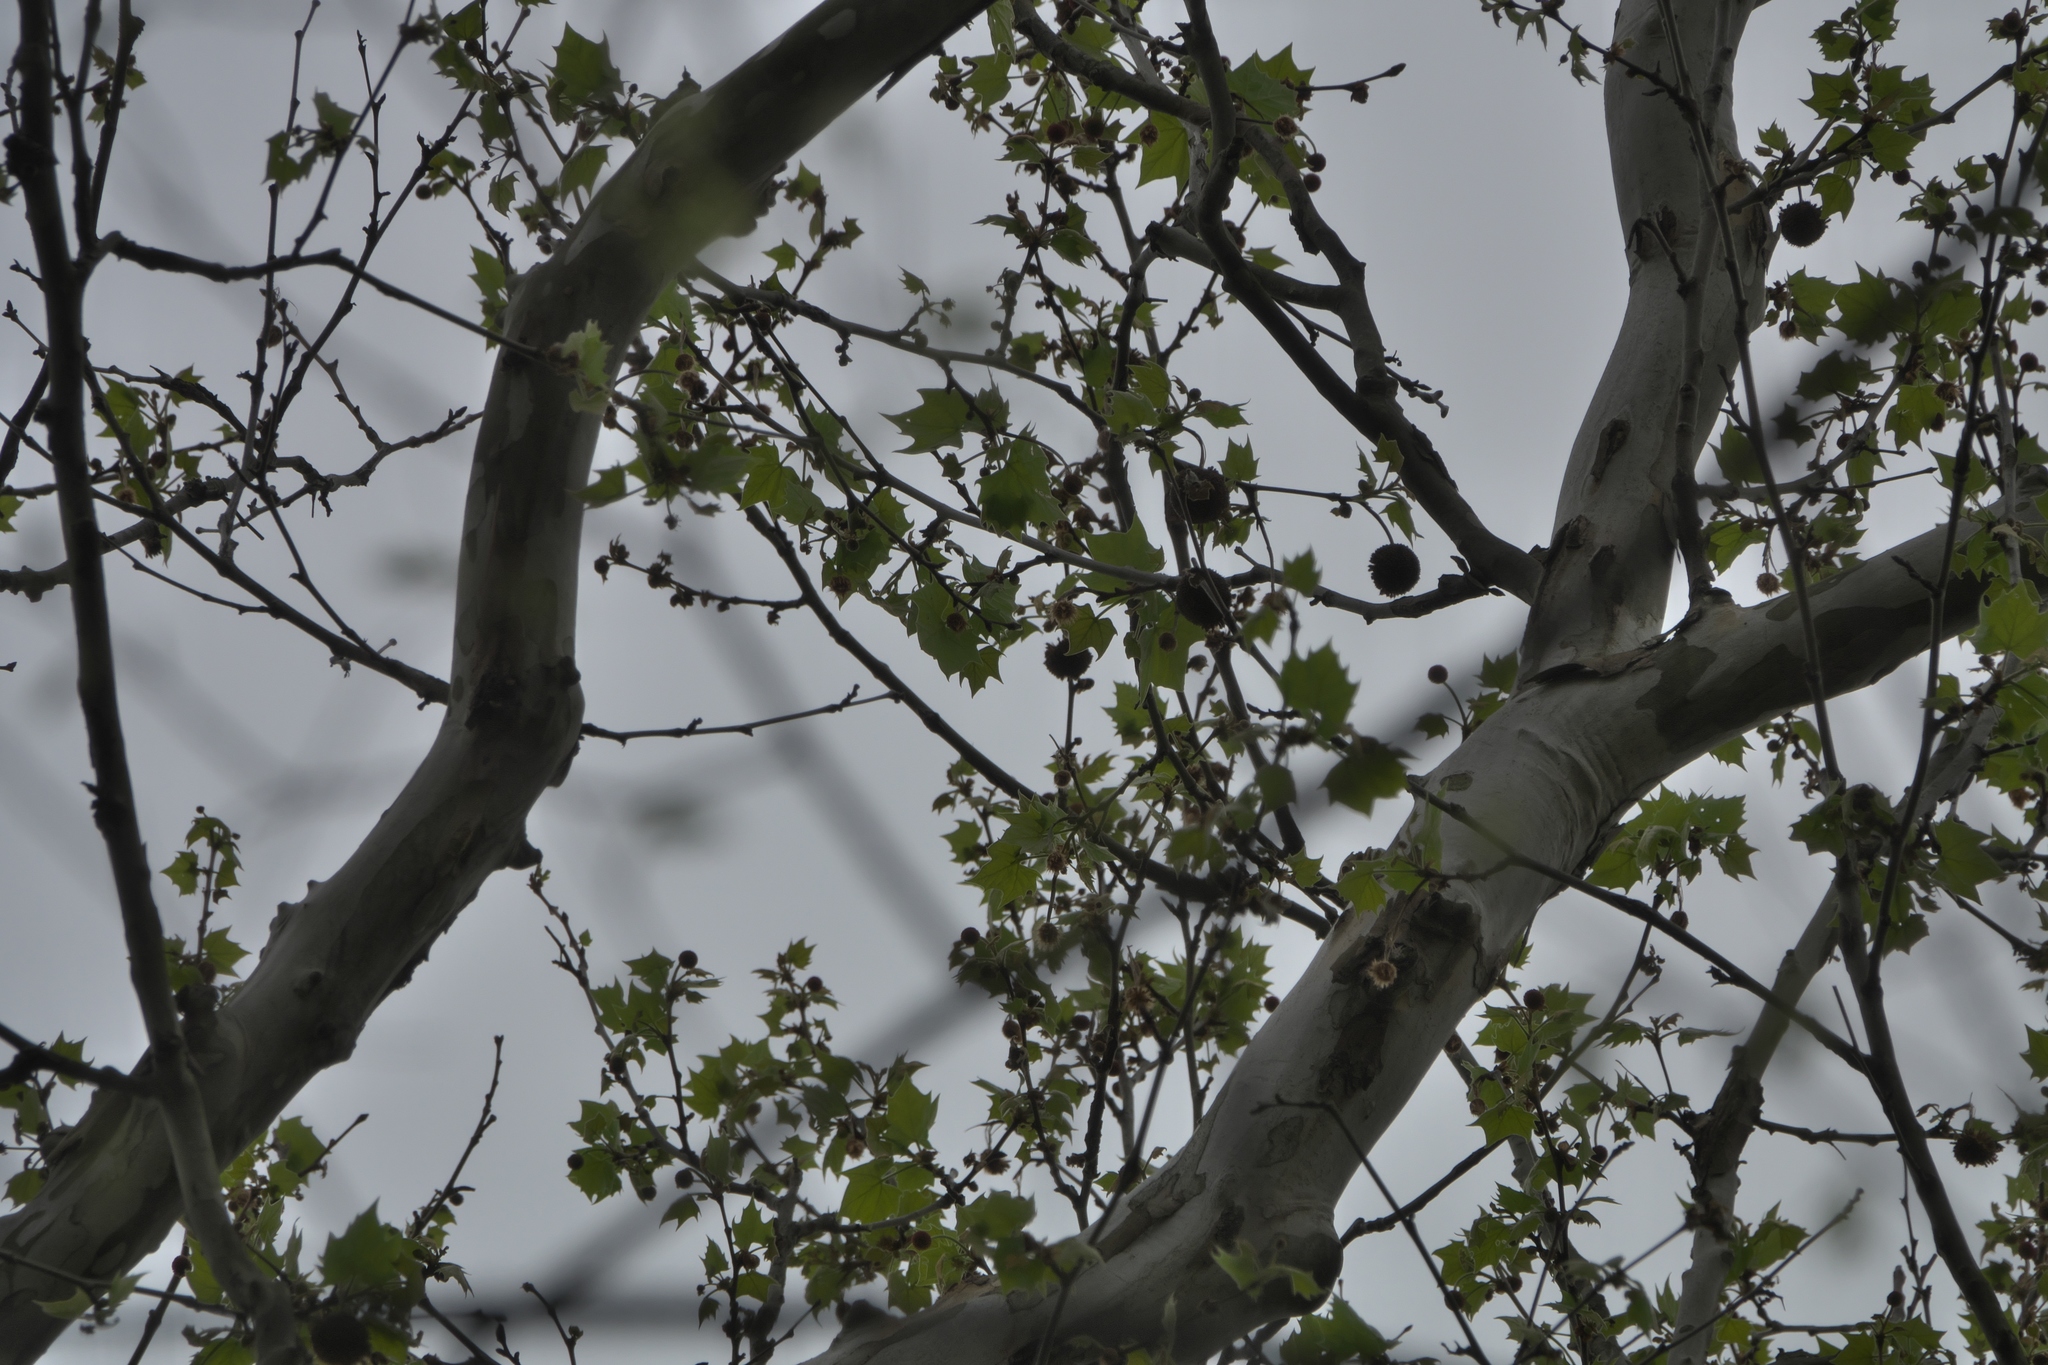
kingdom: Plantae
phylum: Tracheophyta
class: Magnoliopsida
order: Proteales
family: Platanaceae
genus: Platanus
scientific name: Platanus occidentalis
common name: American sycamore
